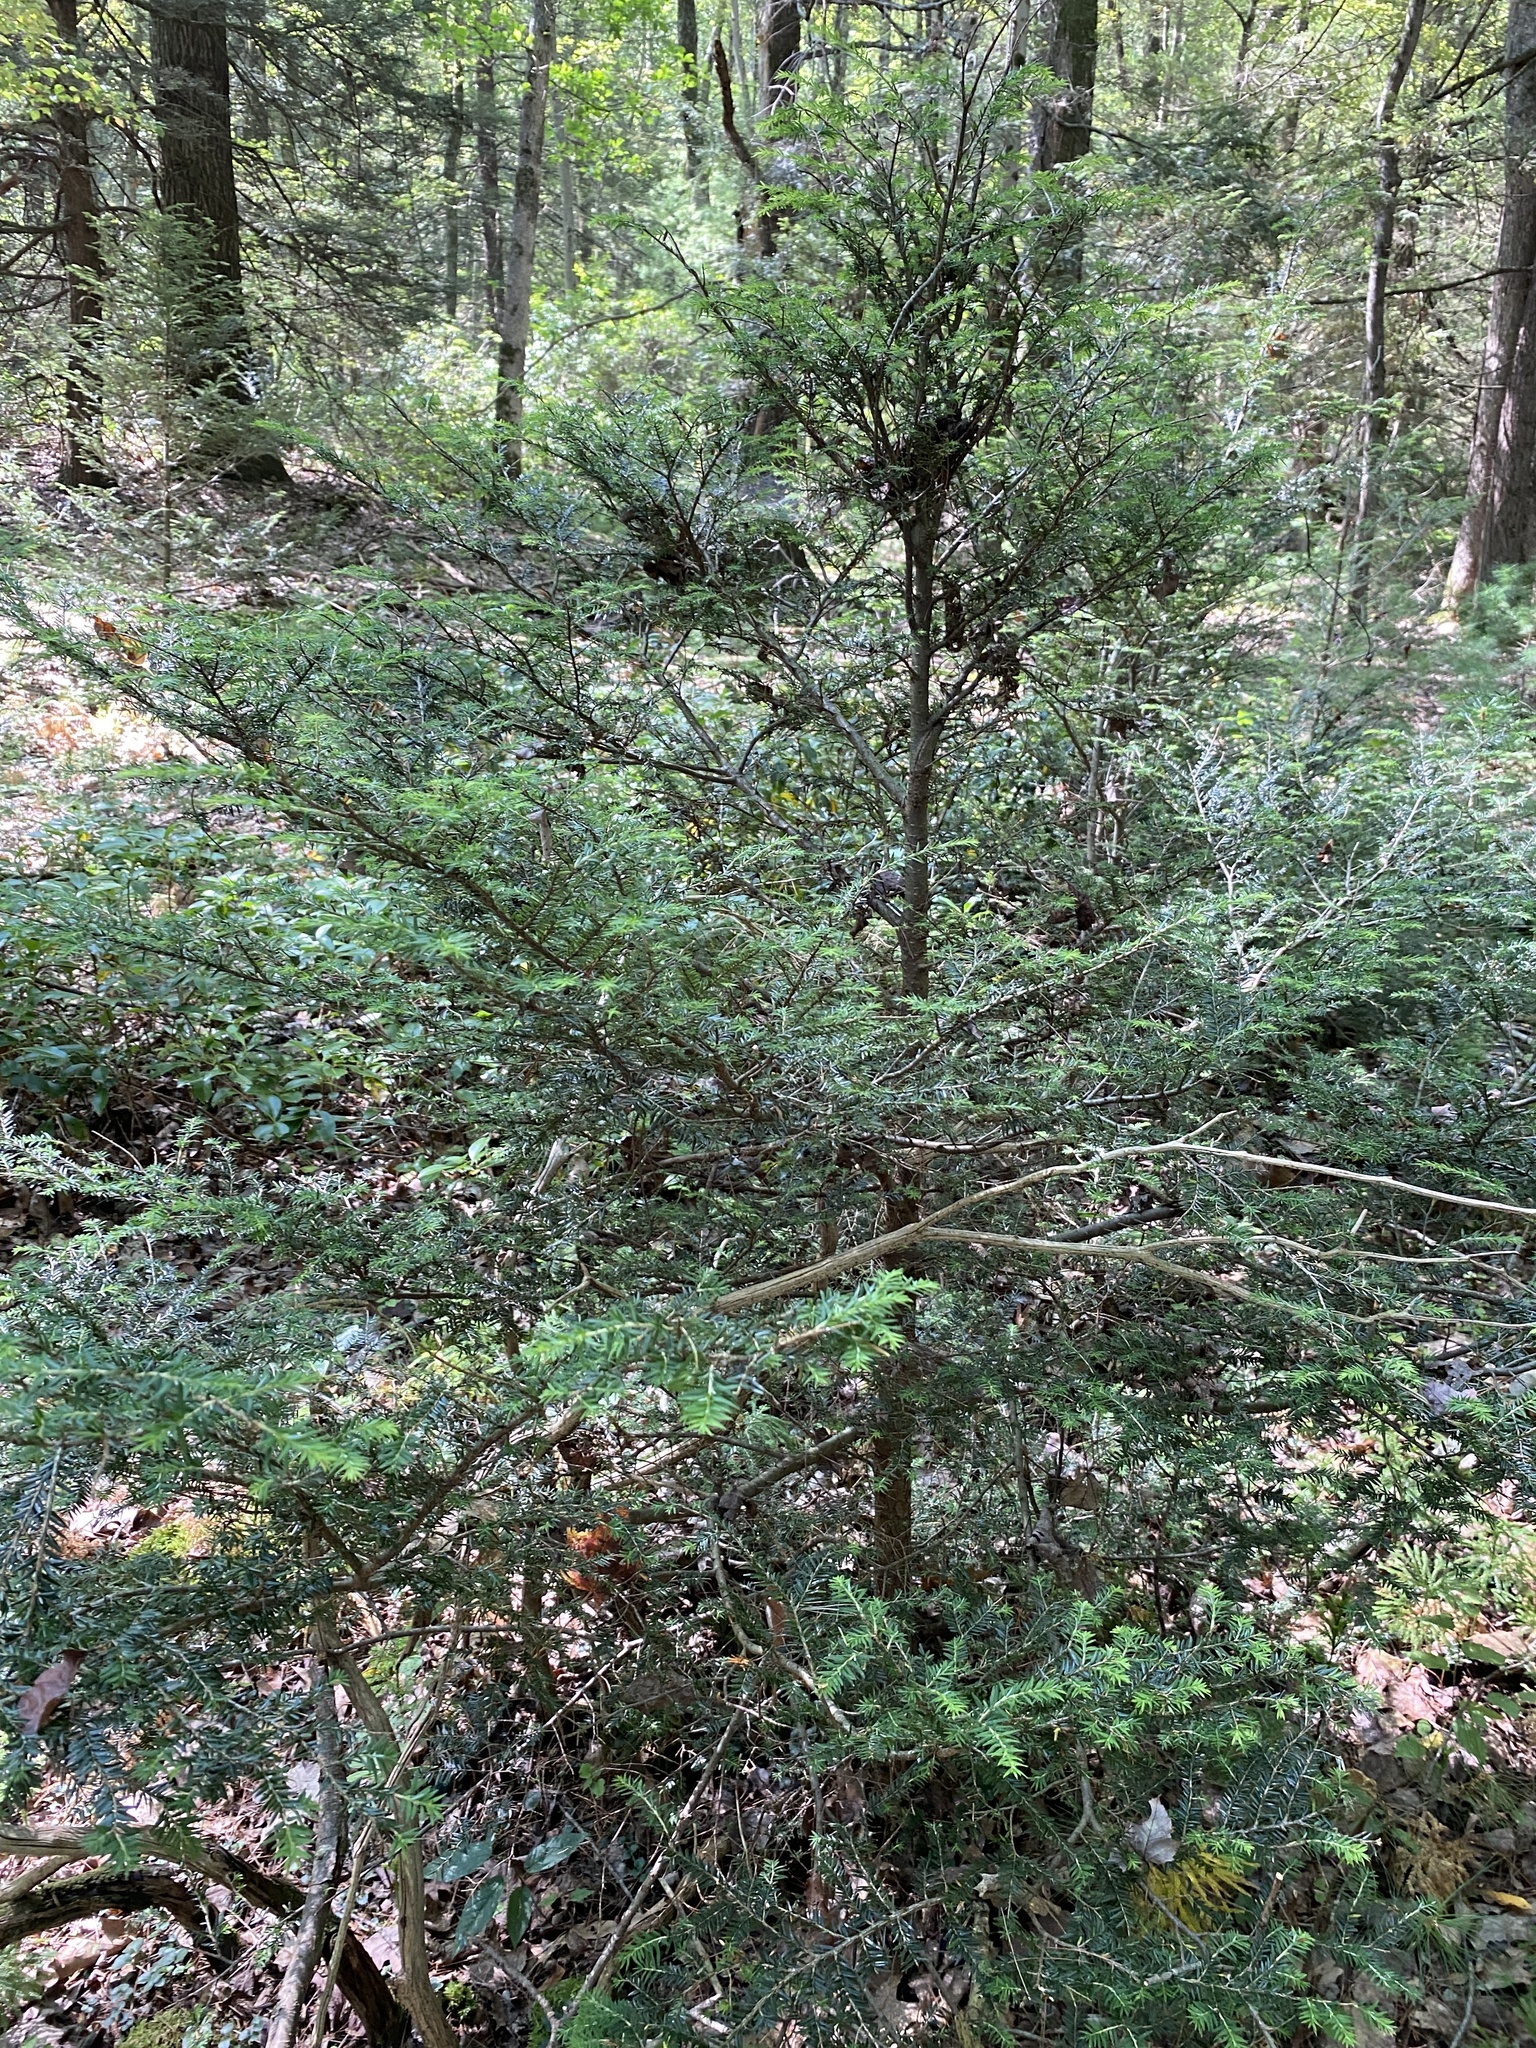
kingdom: Plantae
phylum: Tracheophyta
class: Pinopsida
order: Pinales
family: Pinaceae
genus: Tsuga
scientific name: Tsuga canadensis
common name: Eastern hemlock
